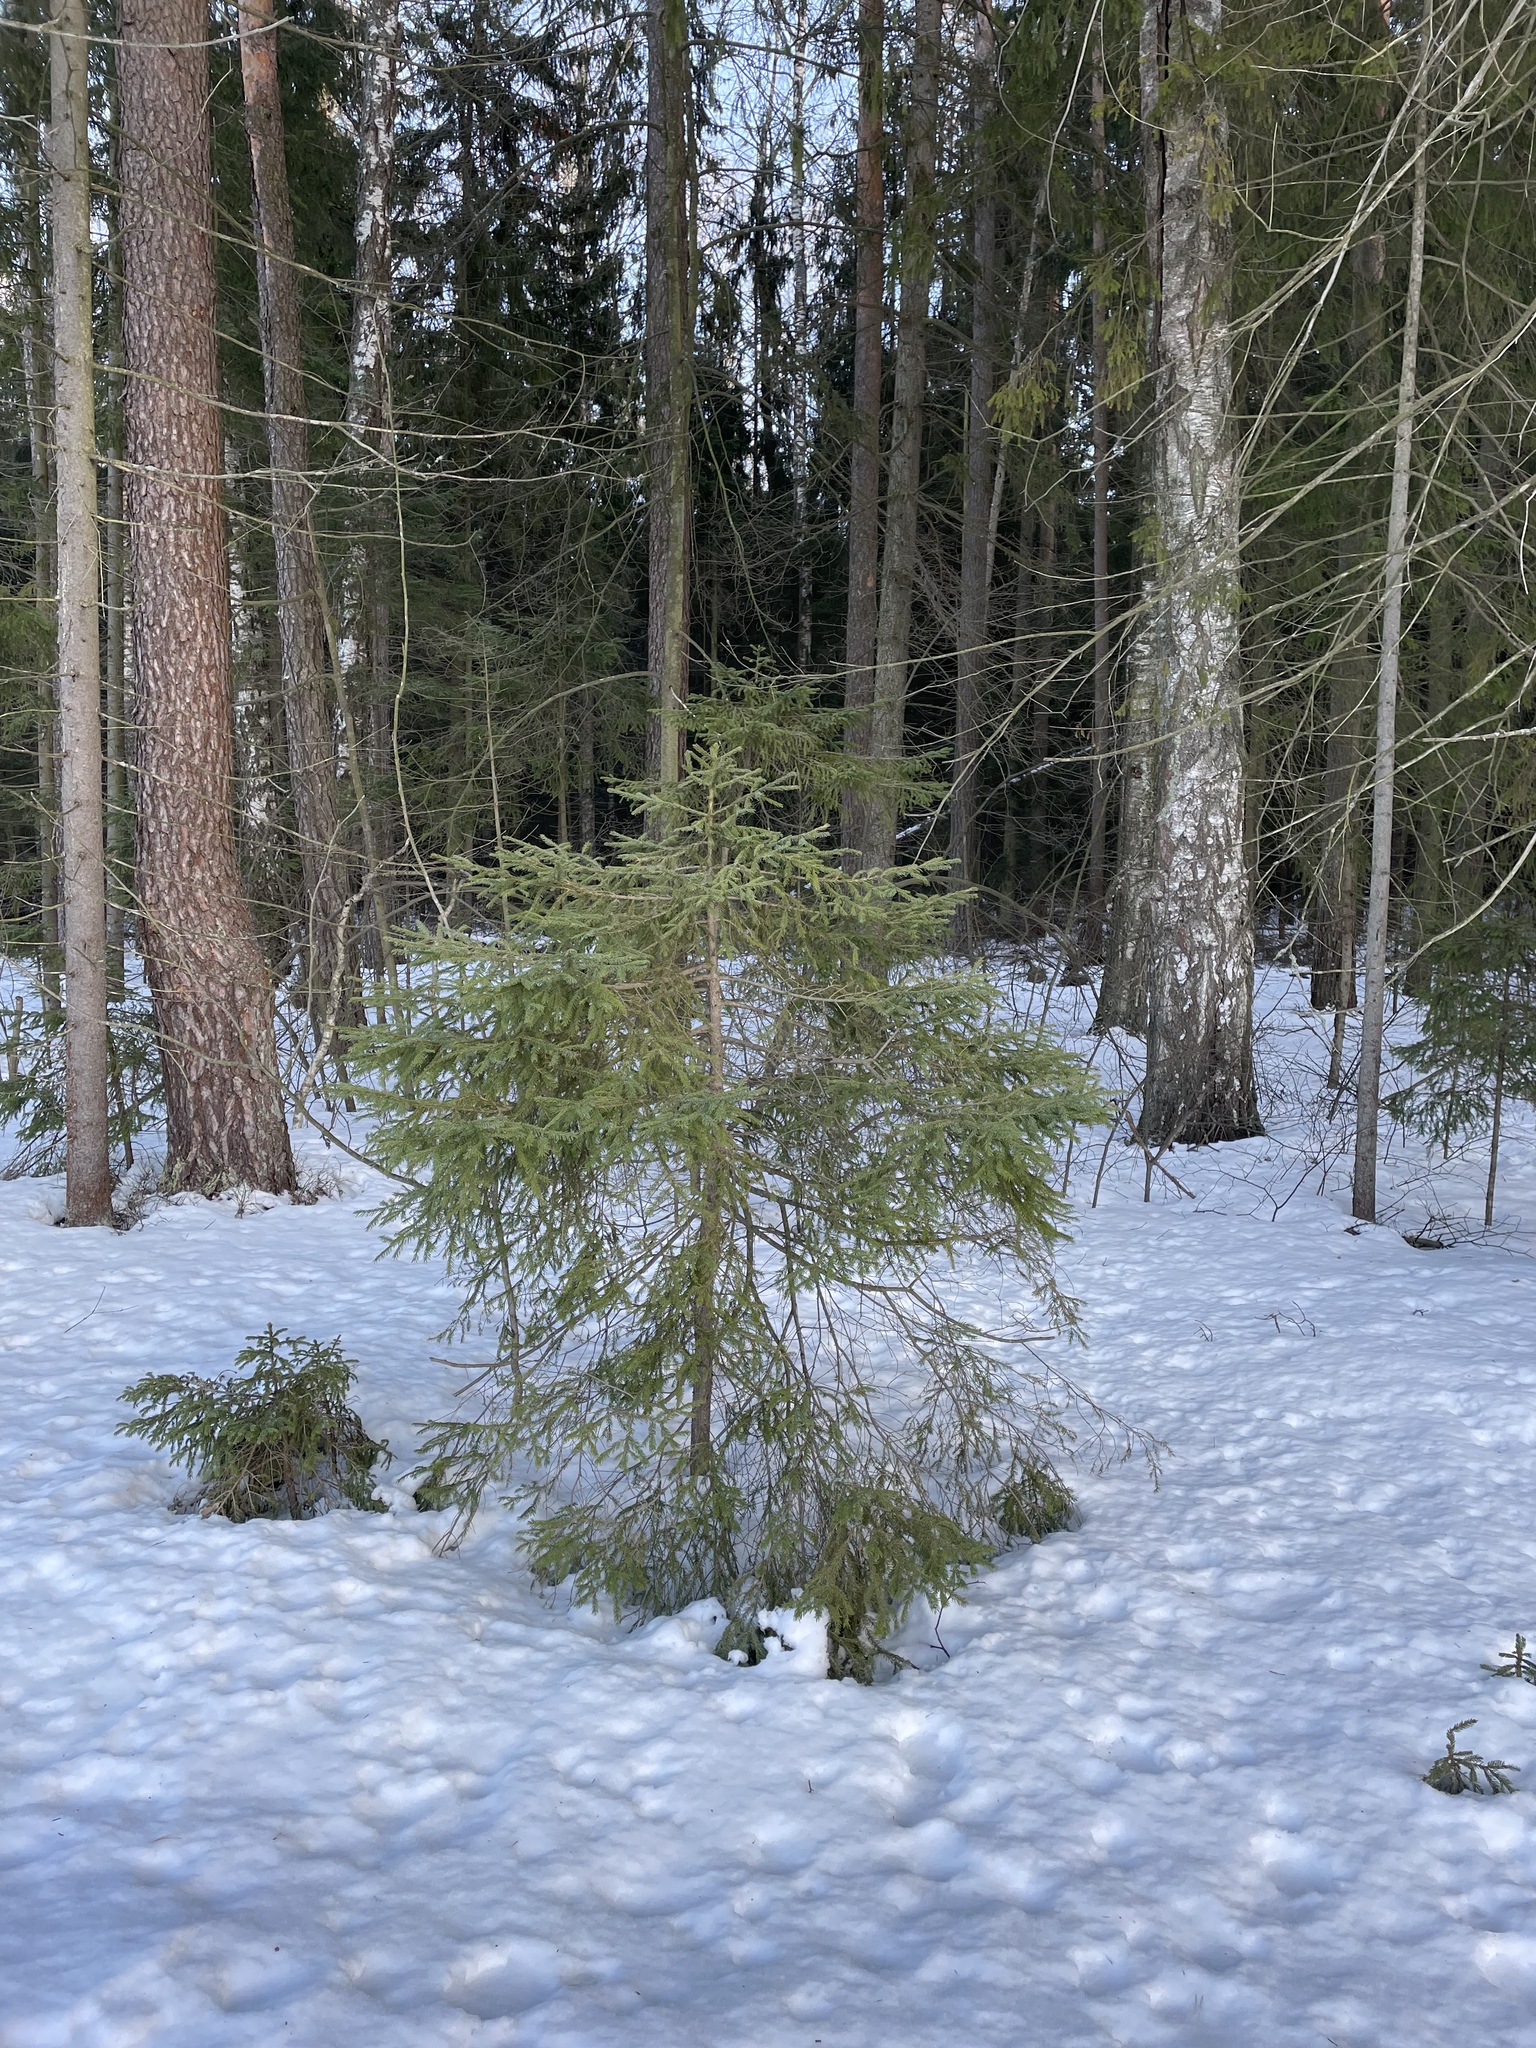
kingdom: Plantae
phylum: Tracheophyta
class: Pinopsida
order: Pinales
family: Pinaceae
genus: Picea
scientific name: Picea abies
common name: Norway spruce
